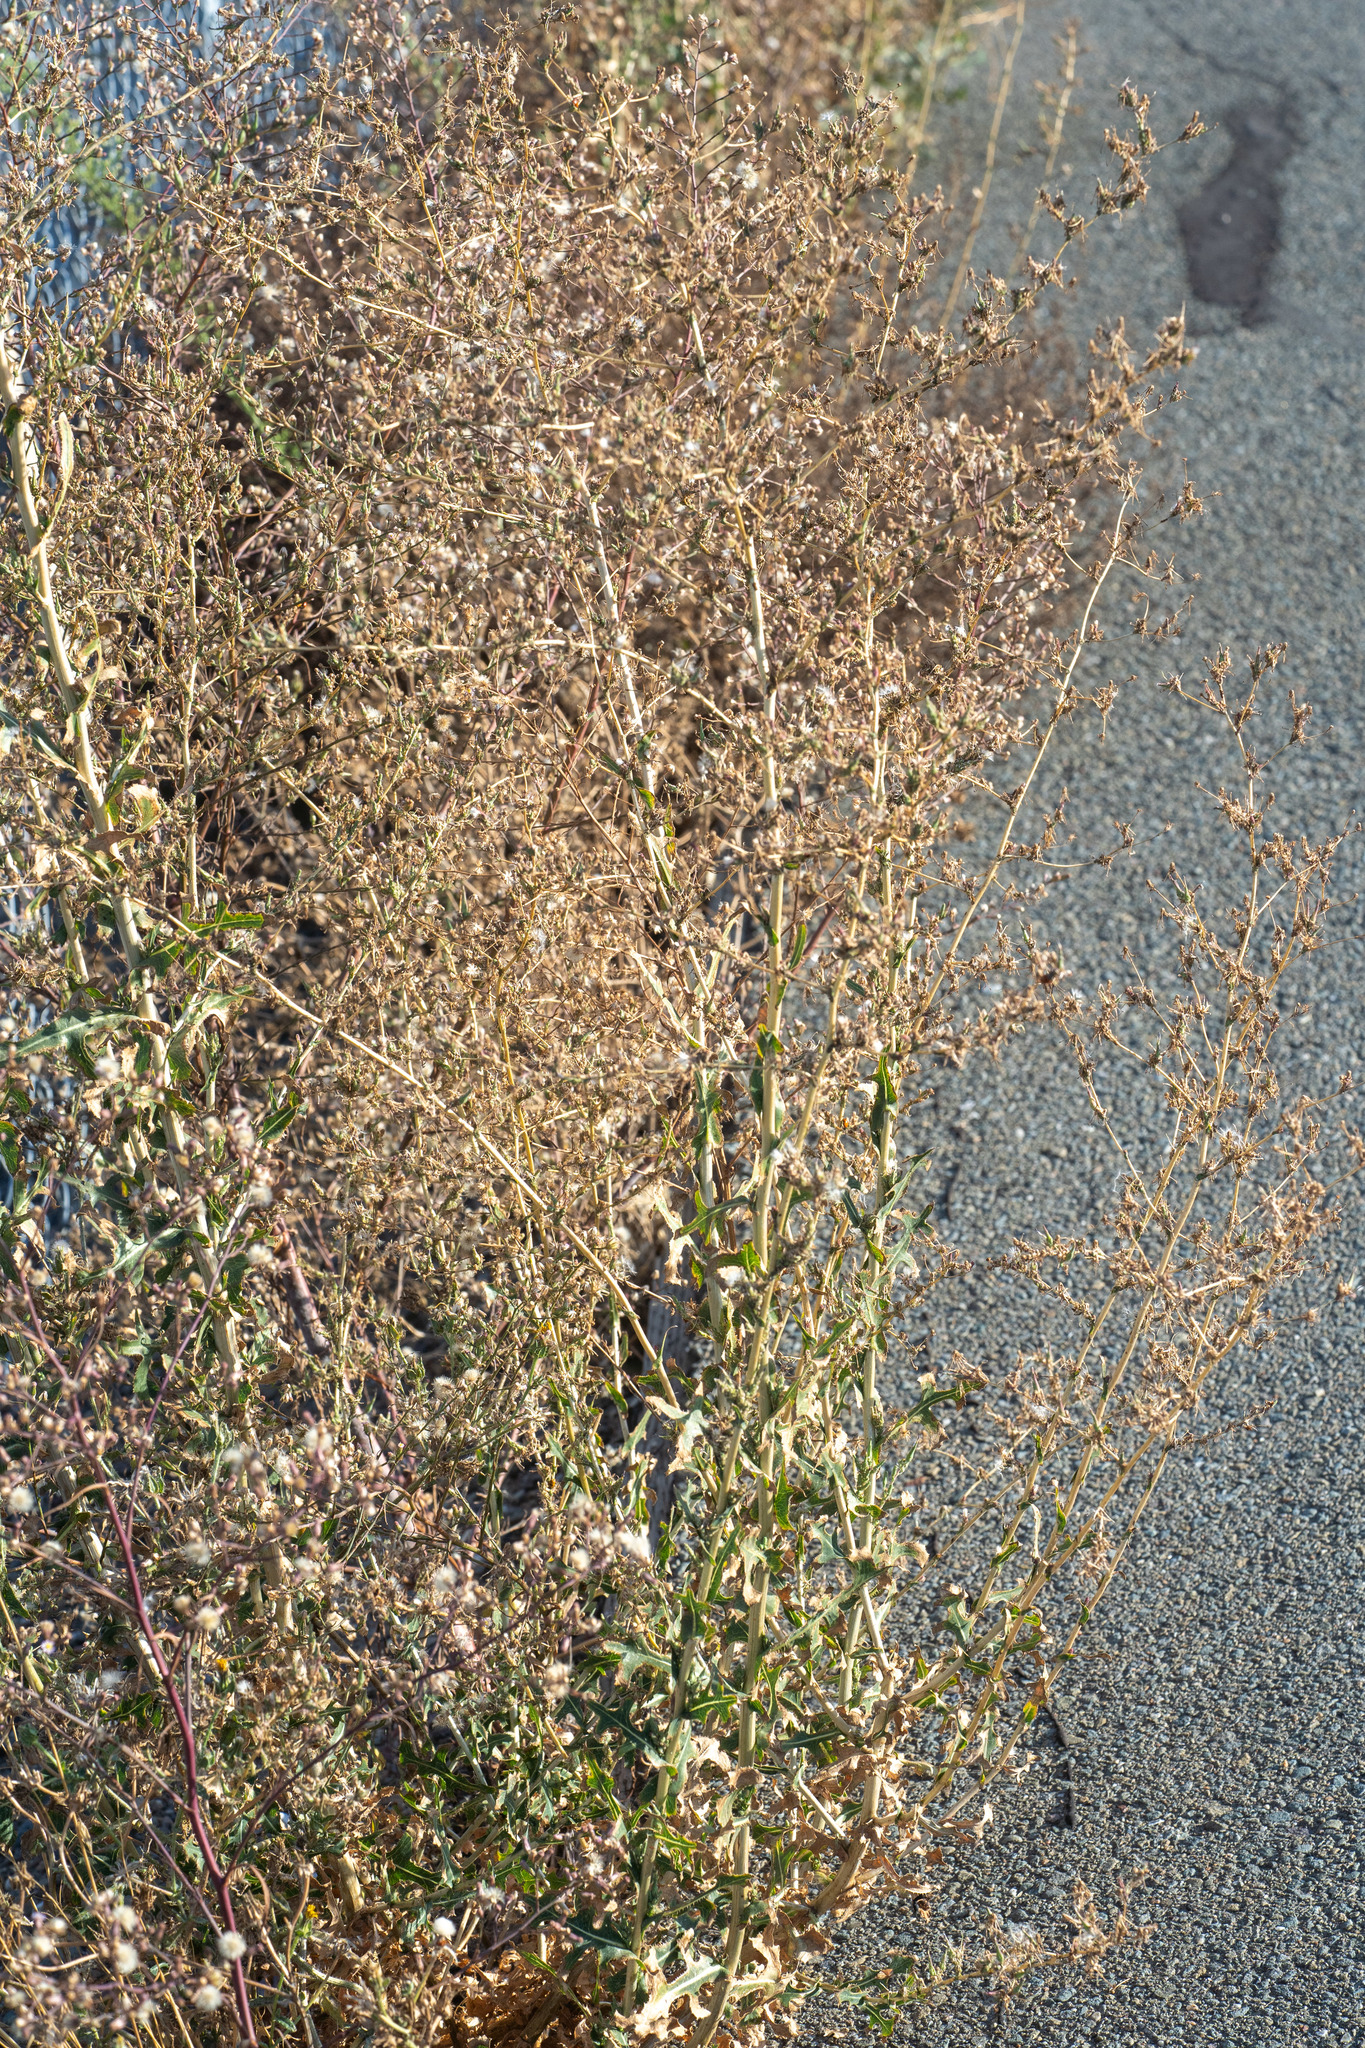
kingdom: Plantae
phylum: Tracheophyta
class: Magnoliopsida
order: Asterales
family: Asteraceae
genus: Lactuca
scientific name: Lactuca serriola
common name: Prickly lettuce
